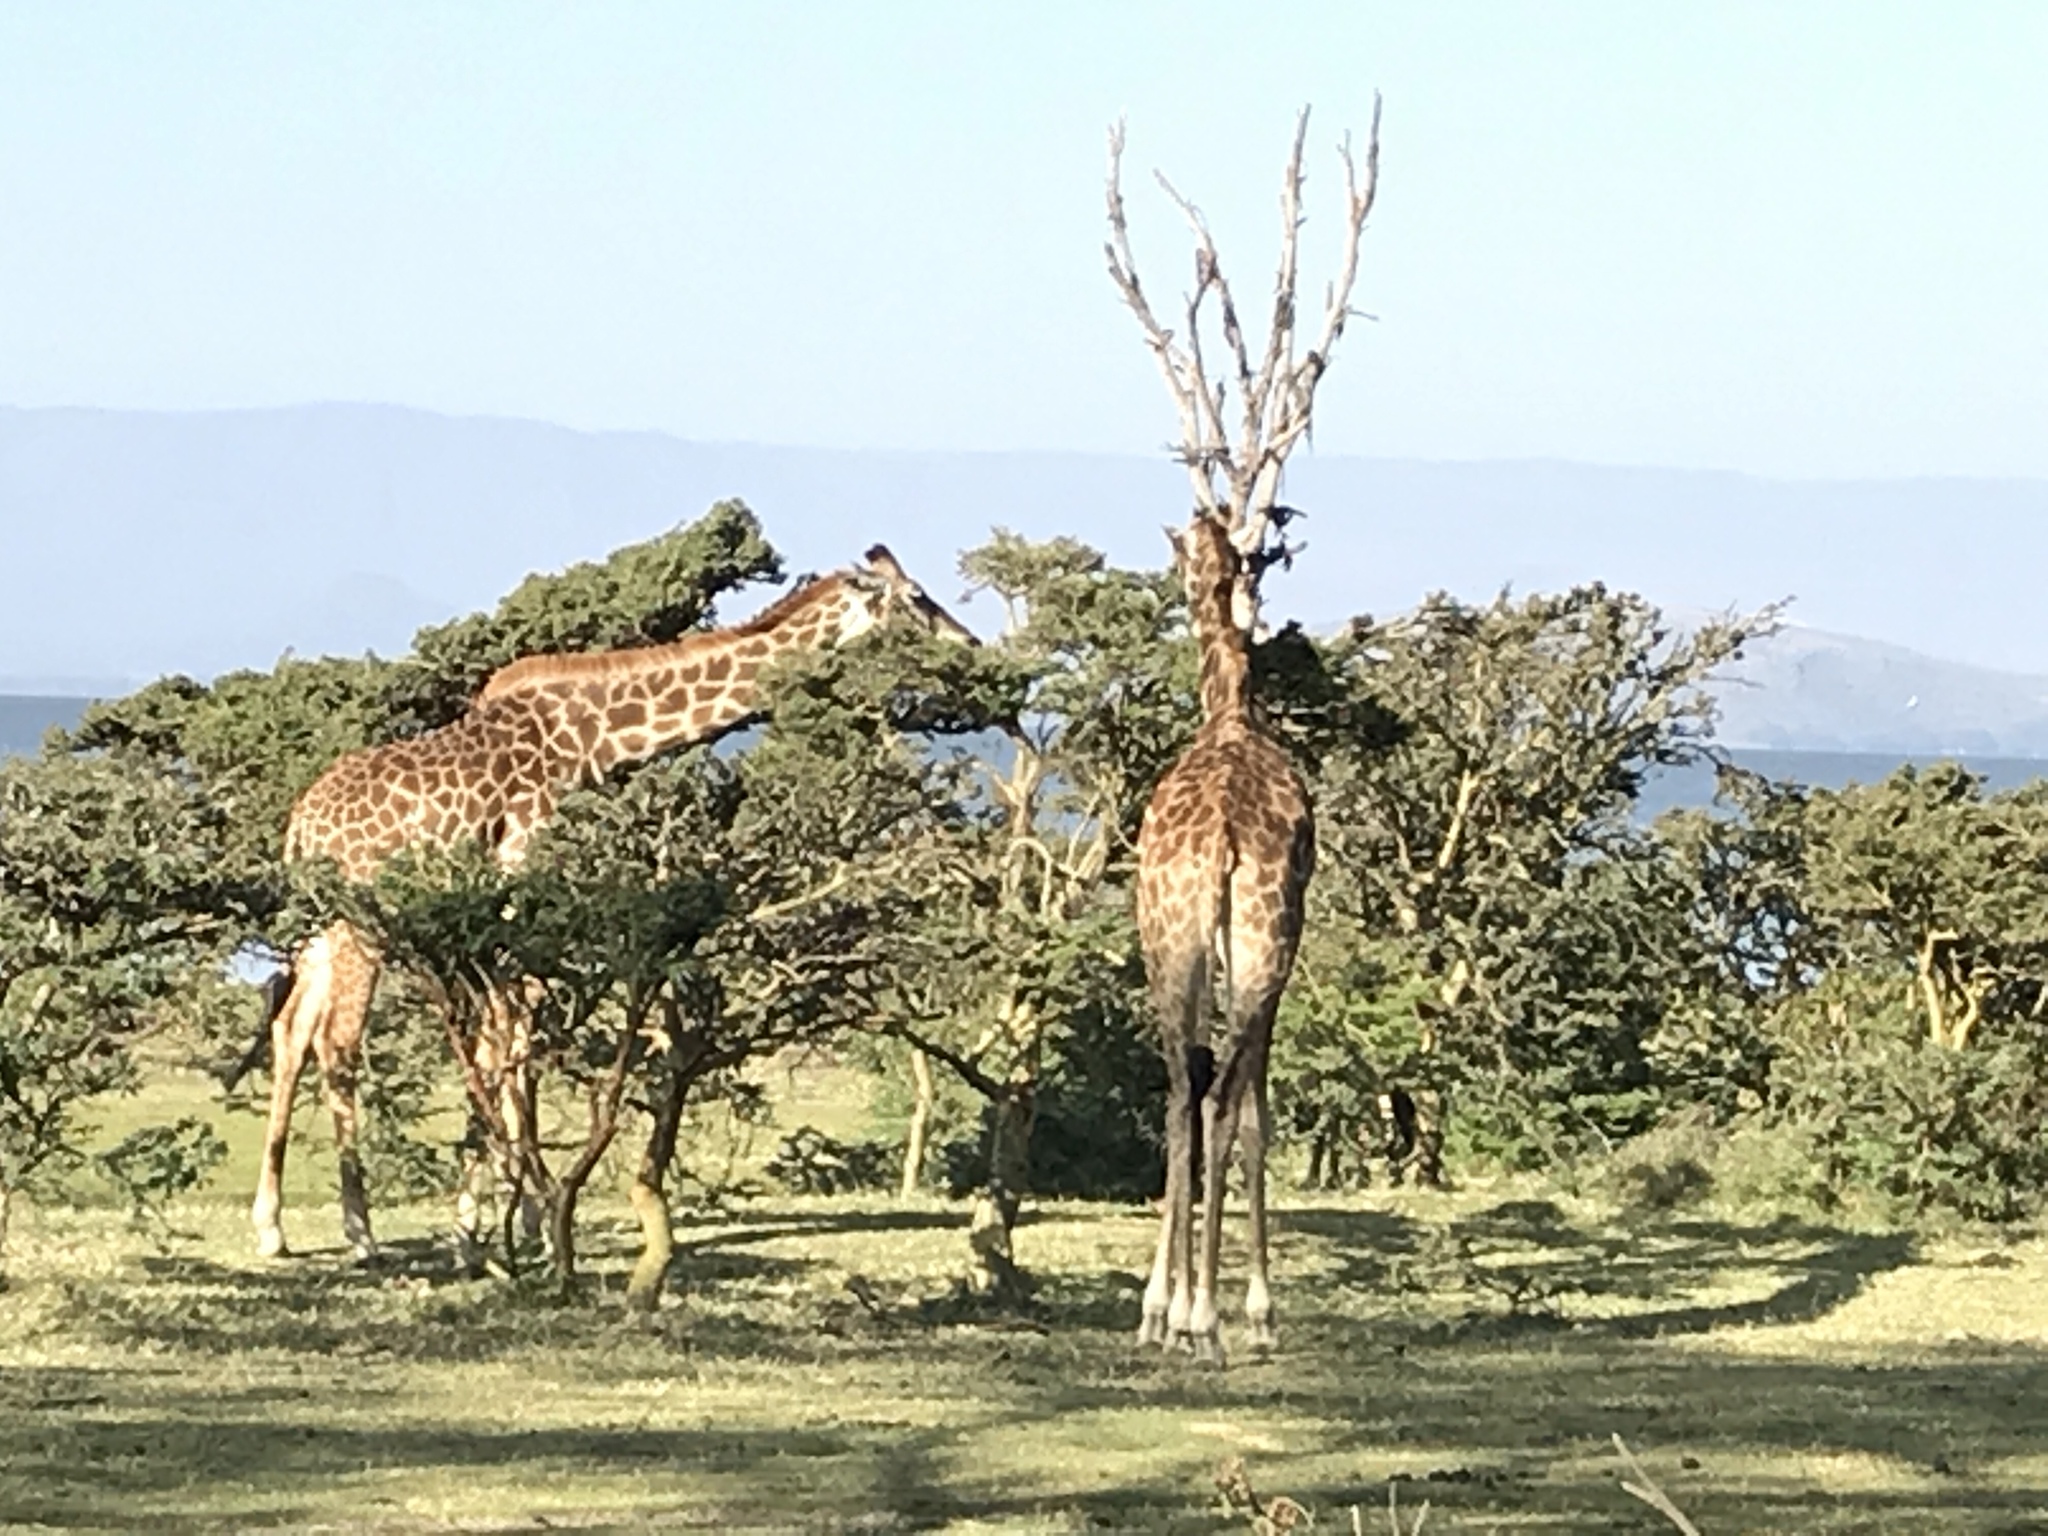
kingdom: Animalia
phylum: Chordata
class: Mammalia
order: Artiodactyla
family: Giraffidae
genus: Giraffa
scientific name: Giraffa tippelskirchi
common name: Masai giraffe
